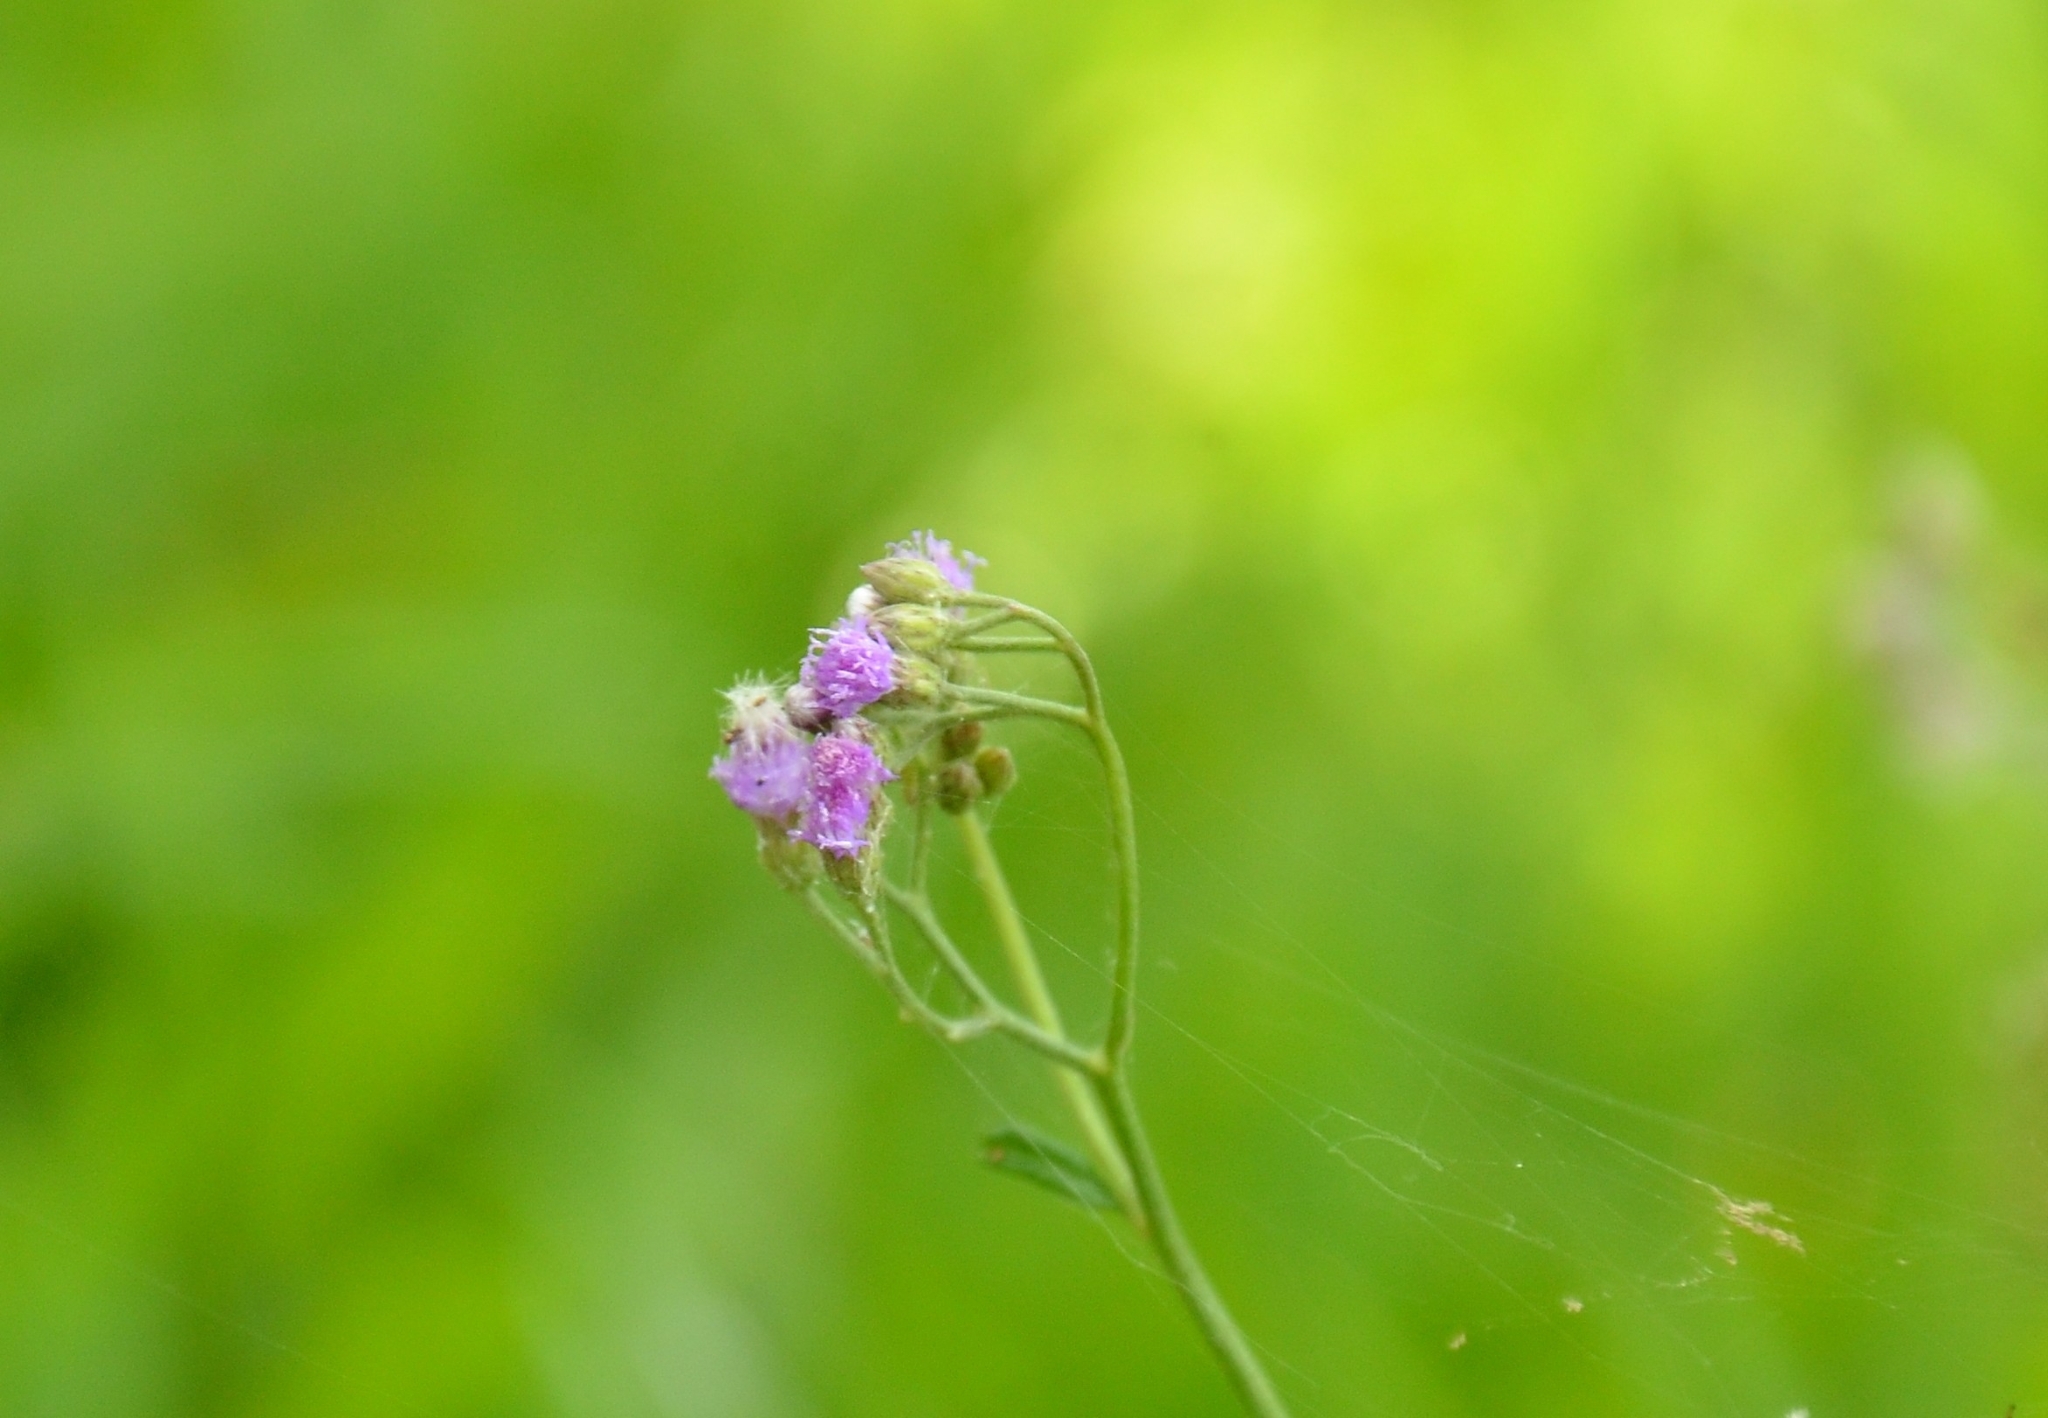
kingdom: Plantae
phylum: Tracheophyta
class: Magnoliopsida
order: Asterales
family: Asteraceae
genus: Cyanthillium
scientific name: Cyanthillium cinereum
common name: Little ironweed
